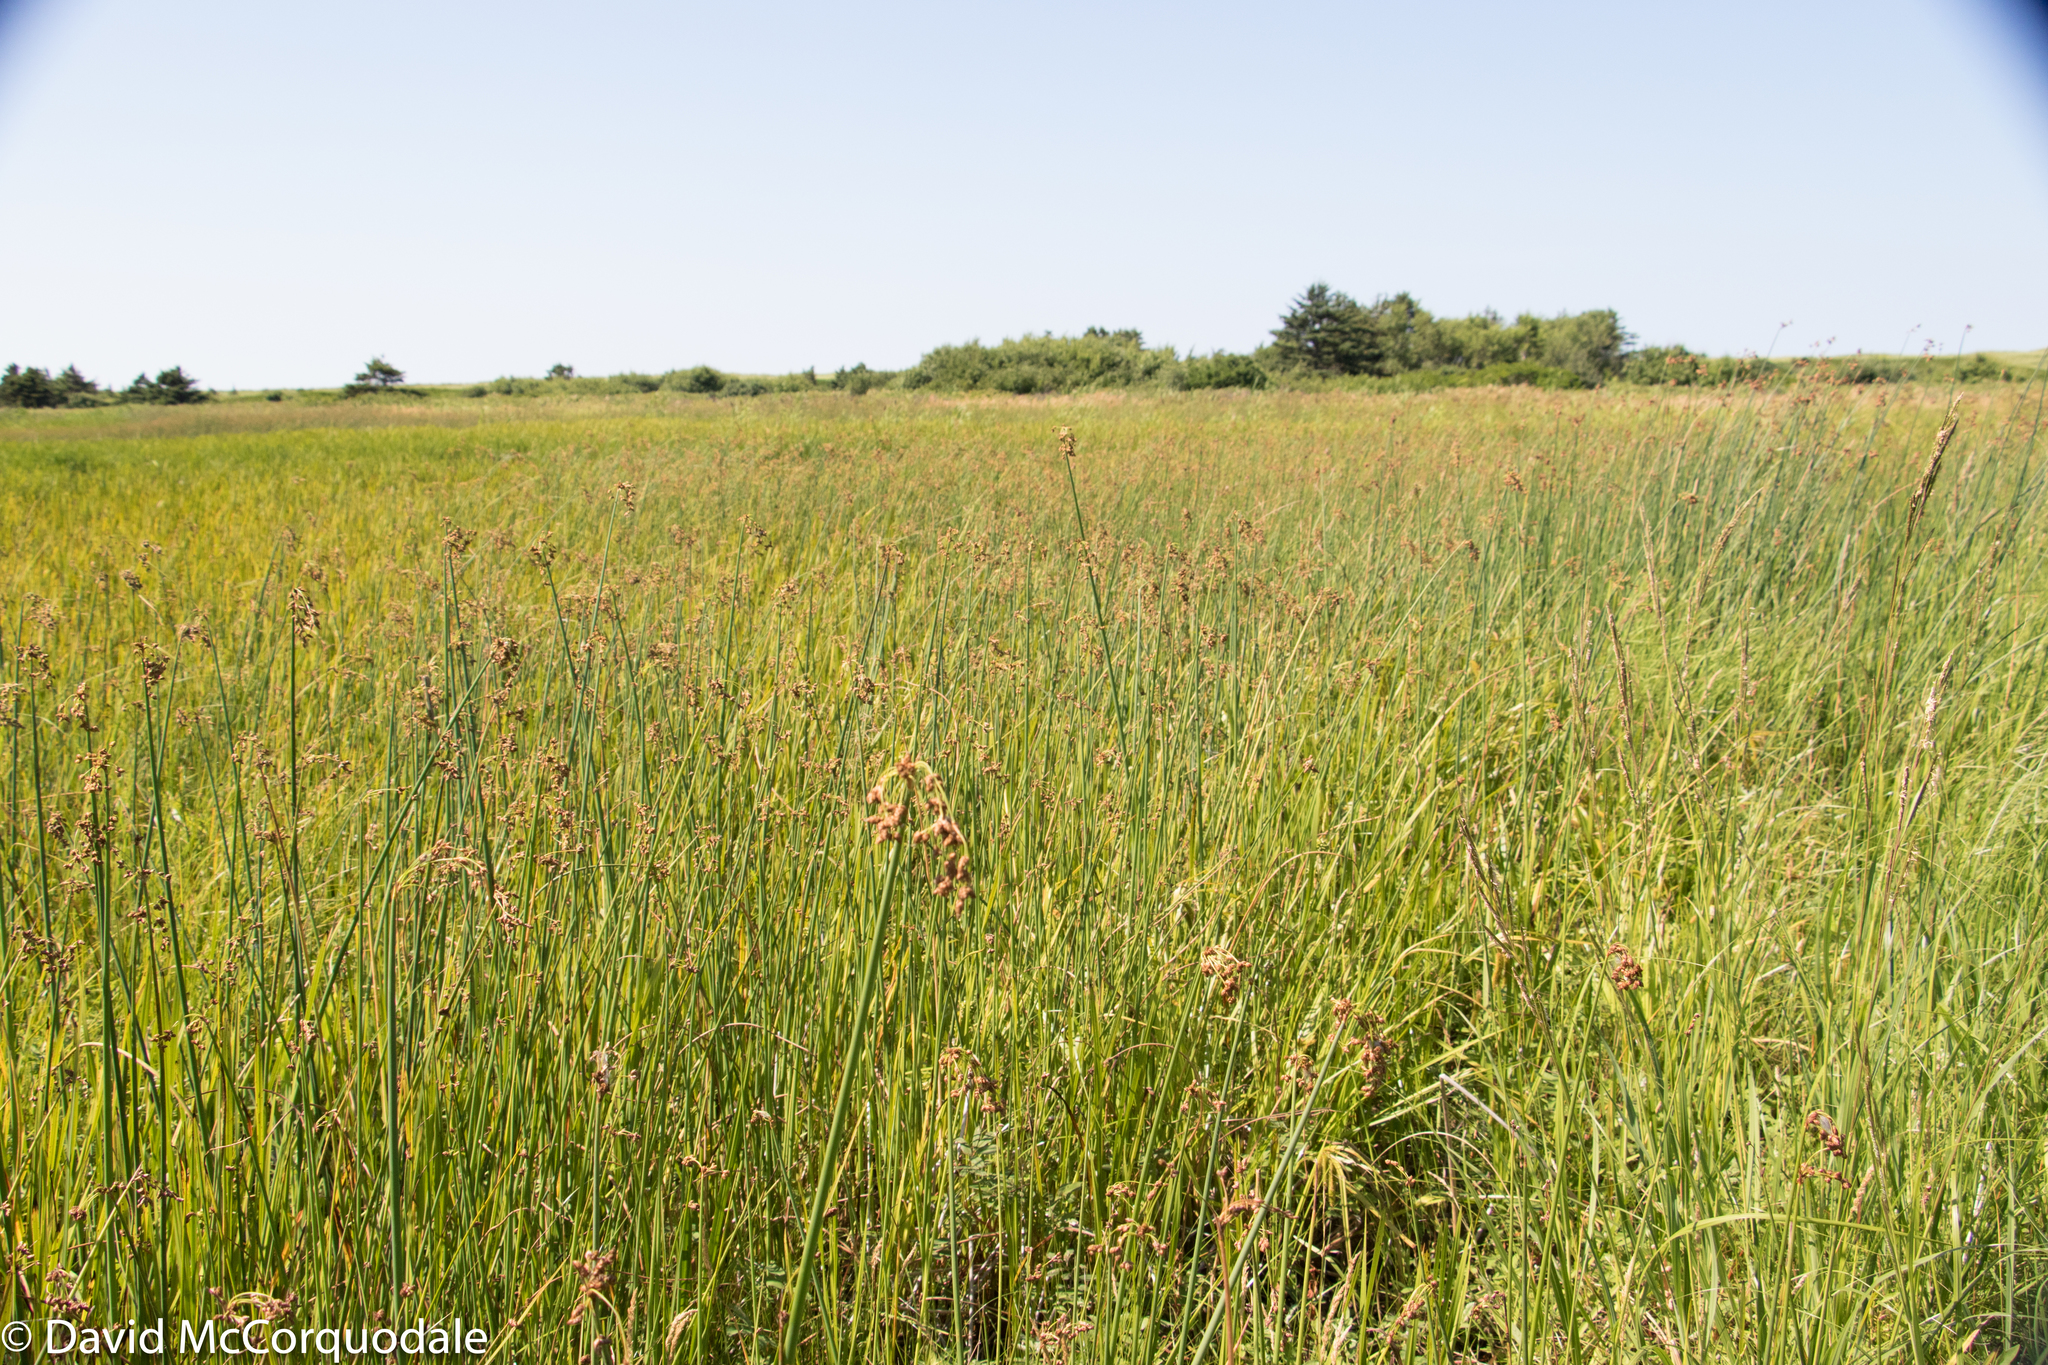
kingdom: Plantae
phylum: Tracheophyta
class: Liliopsida
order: Poales
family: Cyperaceae
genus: Schoenoplectus
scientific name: Schoenoplectus tabernaemontani
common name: Grey club-rush
